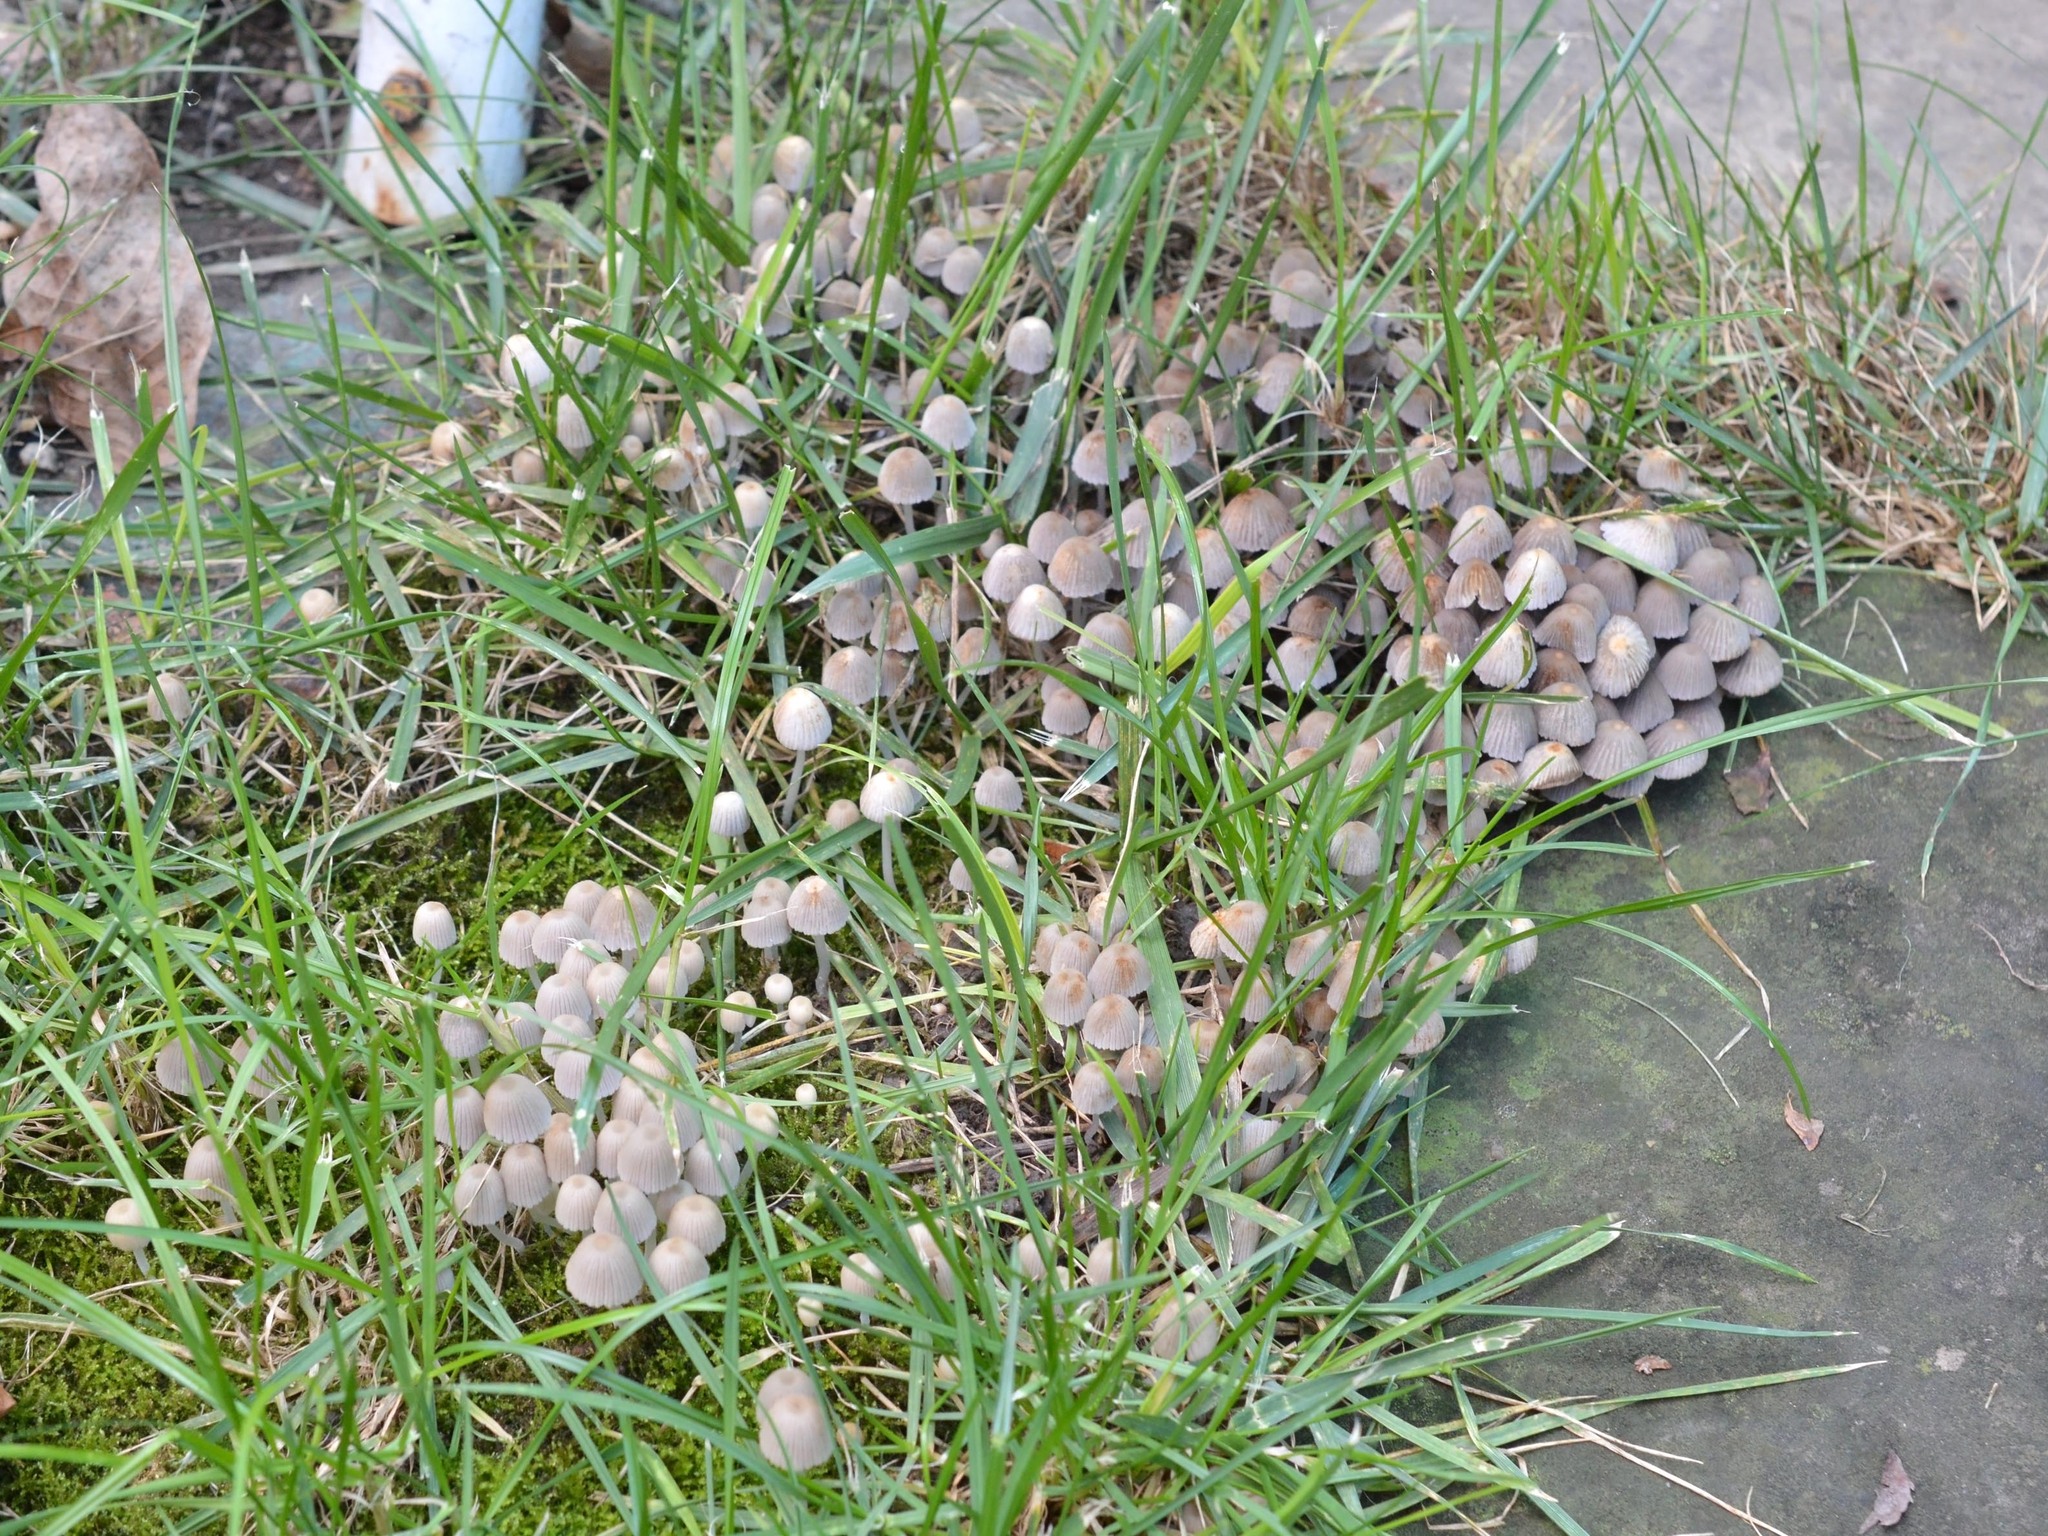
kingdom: Fungi
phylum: Basidiomycota
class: Agaricomycetes
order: Agaricales
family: Psathyrellaceae
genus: Coprinellus
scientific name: Coprinellus disseminatus
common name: Fairies' bonnets
